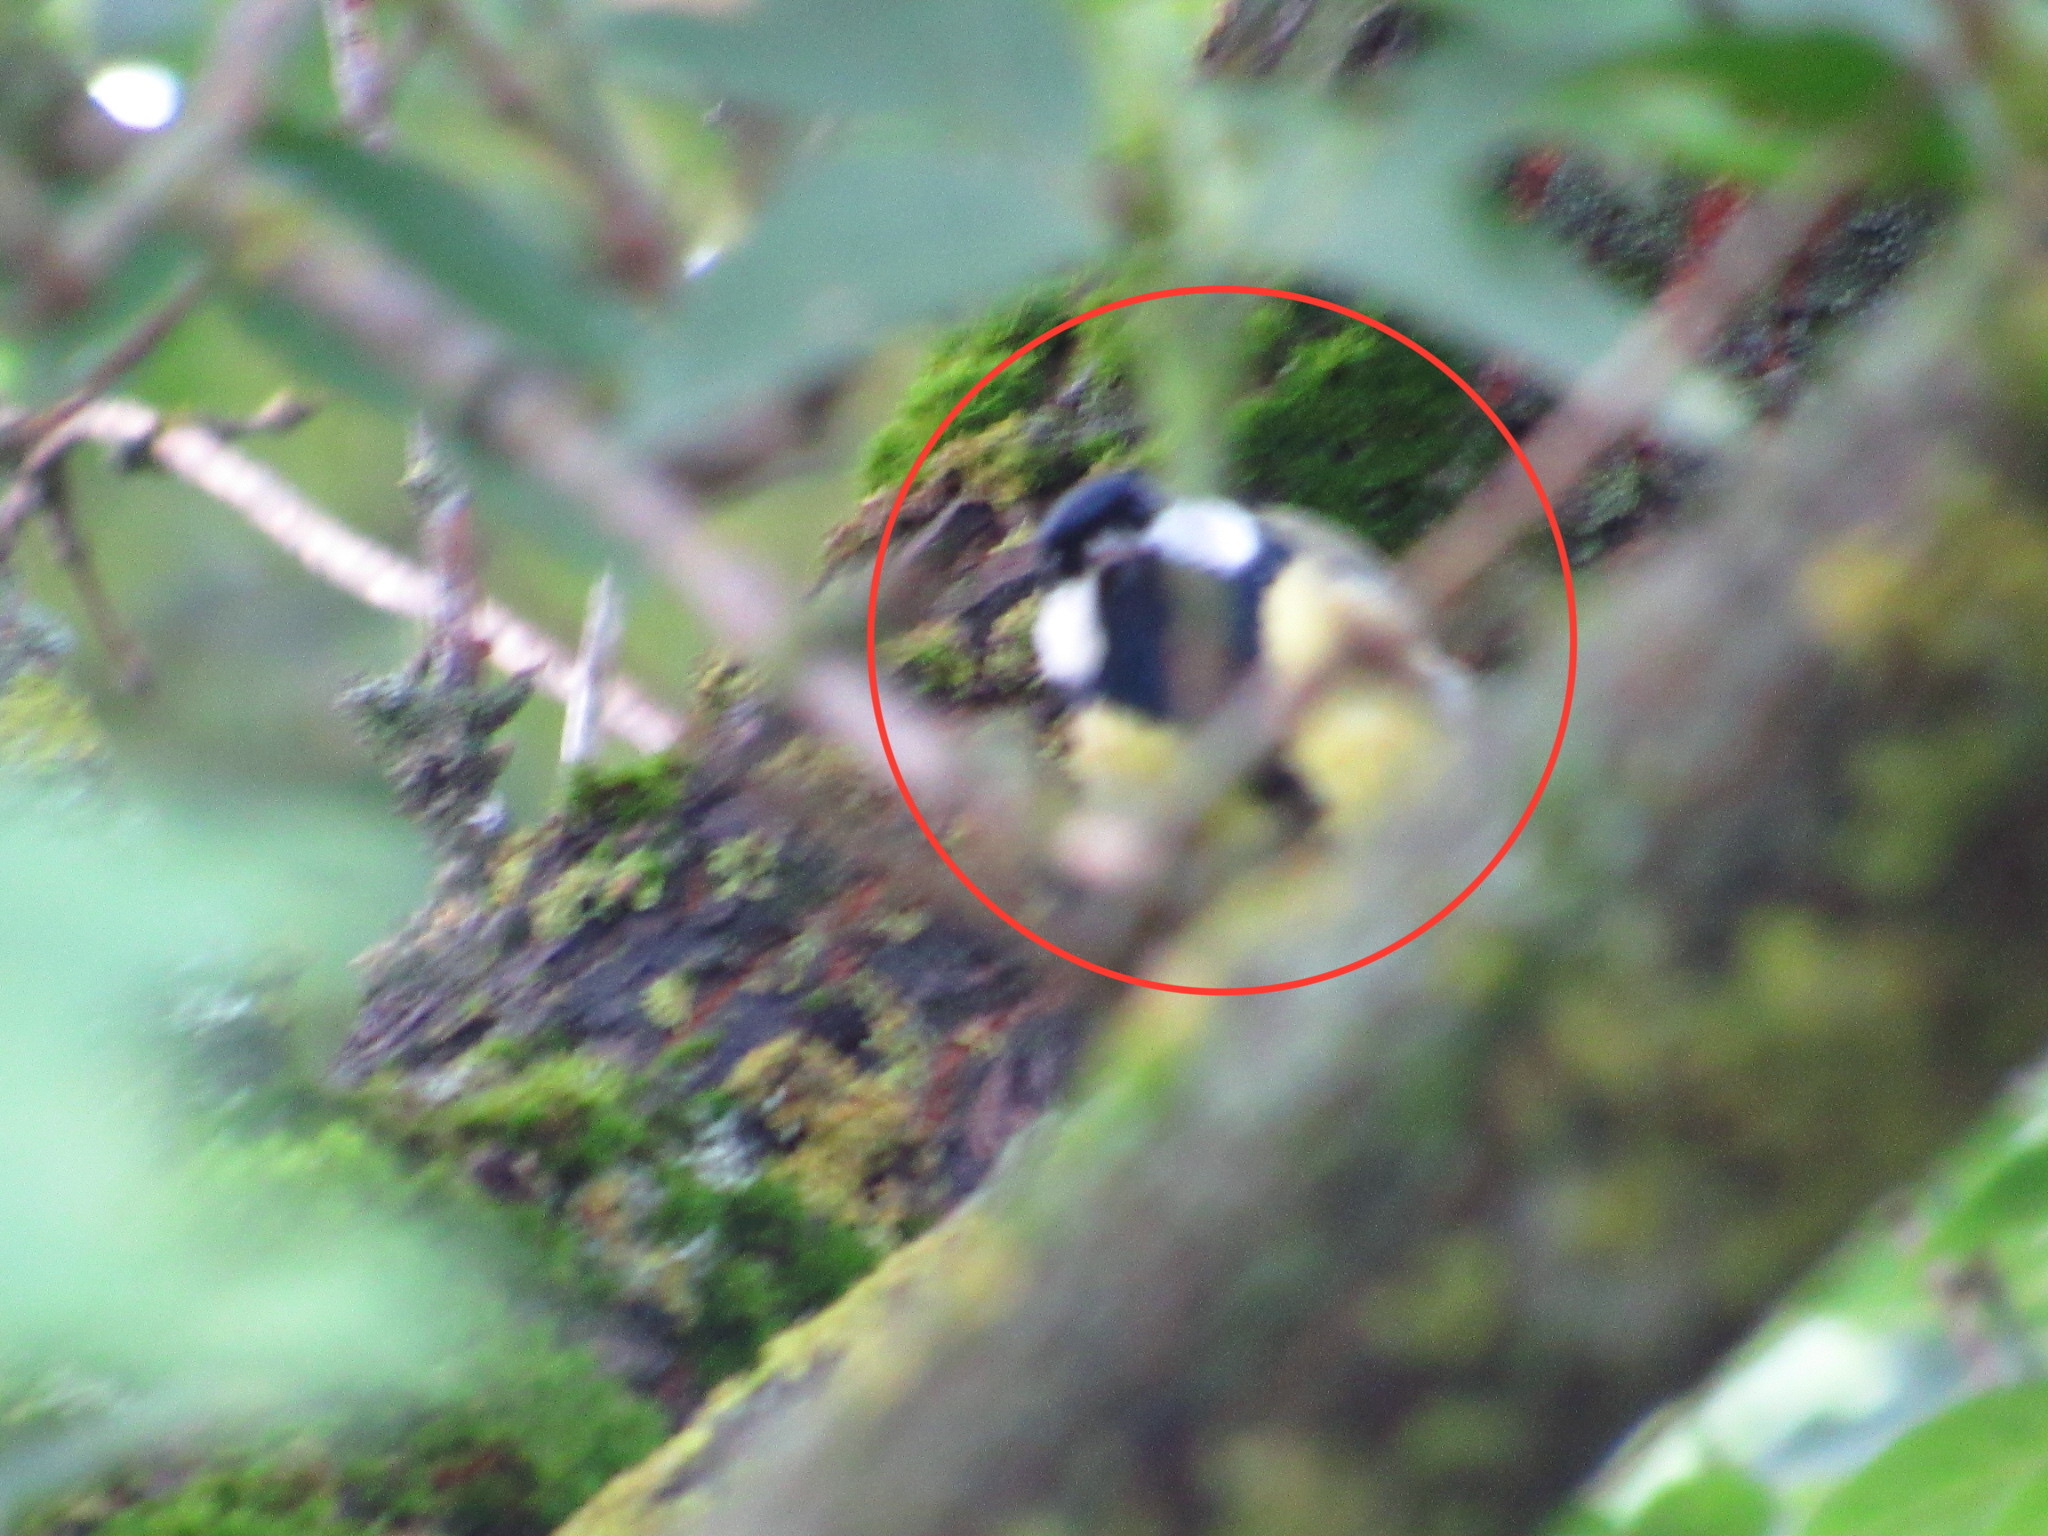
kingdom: Animalia
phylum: Chordata
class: Aves
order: Passeriformes
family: Paridae
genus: Parus
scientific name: Parus major
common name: Great tit
